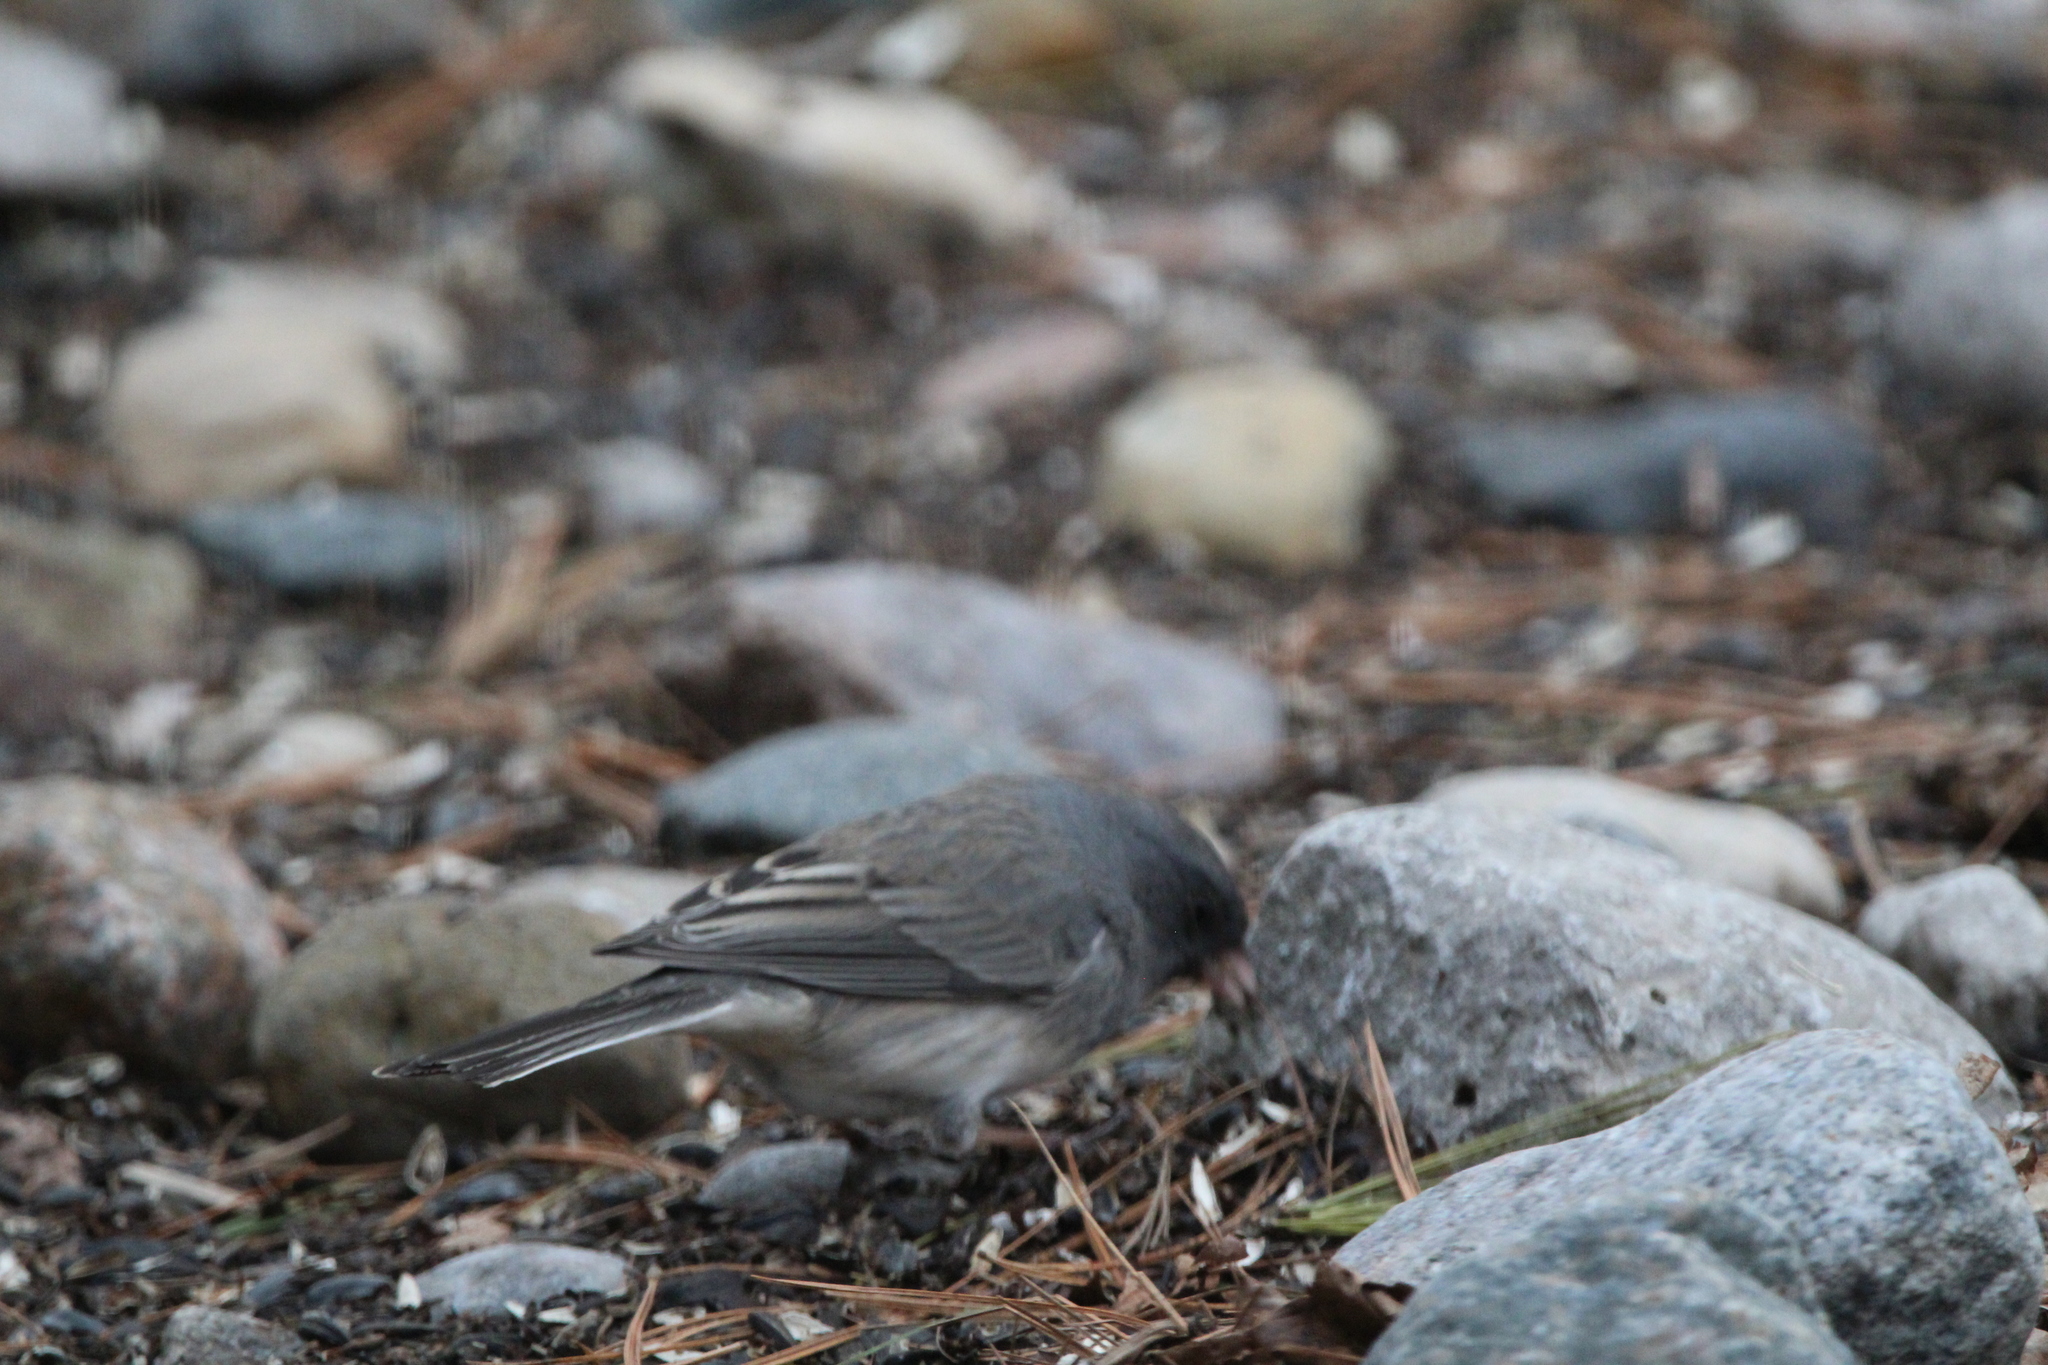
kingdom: Animalia
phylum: Chordata
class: Aves
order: Passeriformes
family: Passerellidae
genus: Junco
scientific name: Junco hyemalis
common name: Dark-eyed junco
